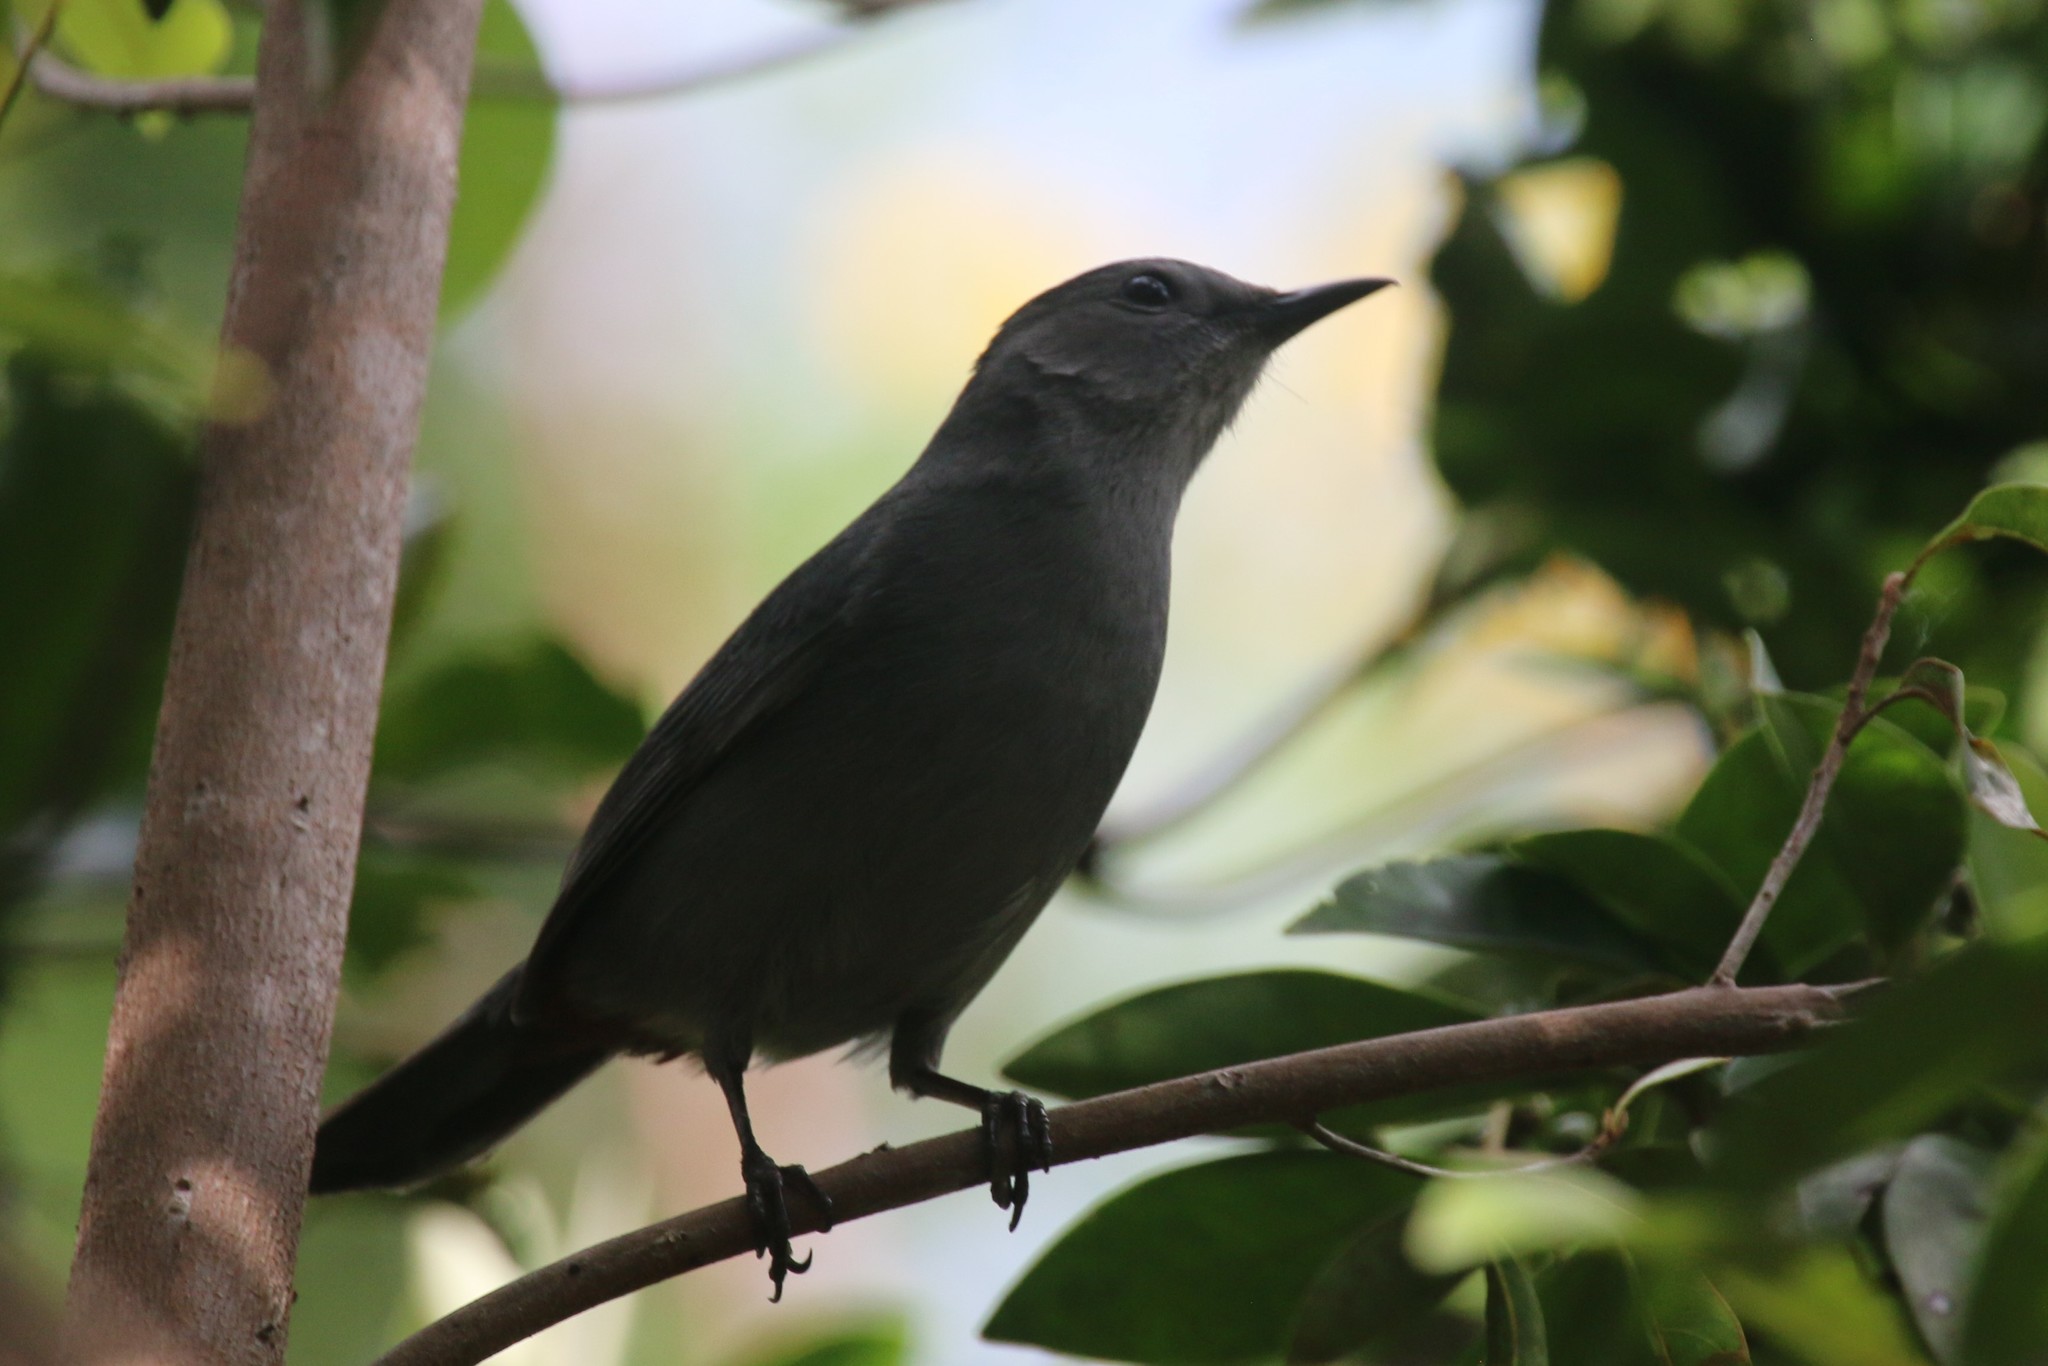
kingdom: Animalia
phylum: Chordata
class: Aves
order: Passeriformes
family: Mimidae
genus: Dumetella
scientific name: Dumetella carolinensis
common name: Gray catbird
